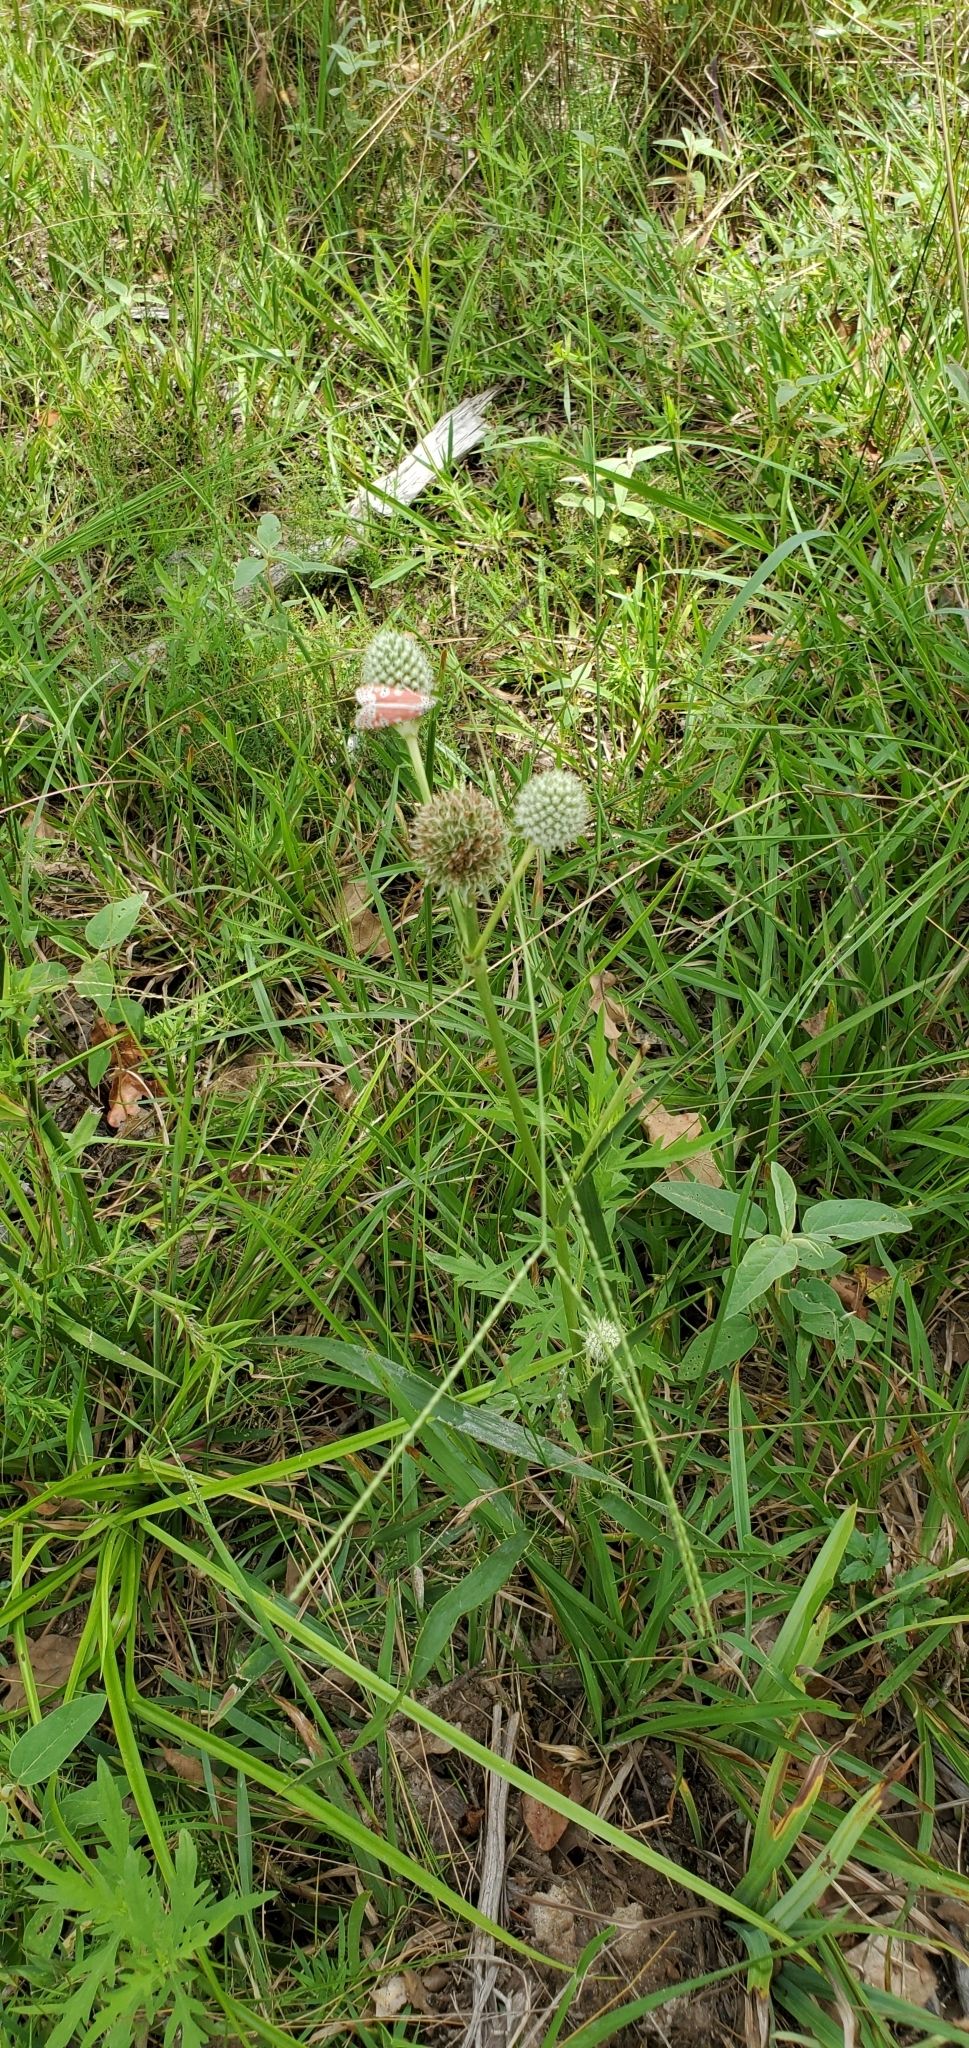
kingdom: Animalia
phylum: Arthropoda
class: Insecta
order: Lepidoptera
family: Erebidae
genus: Utetheisa
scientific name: Utetheisa ornatrix
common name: Beautiful utetheisa
